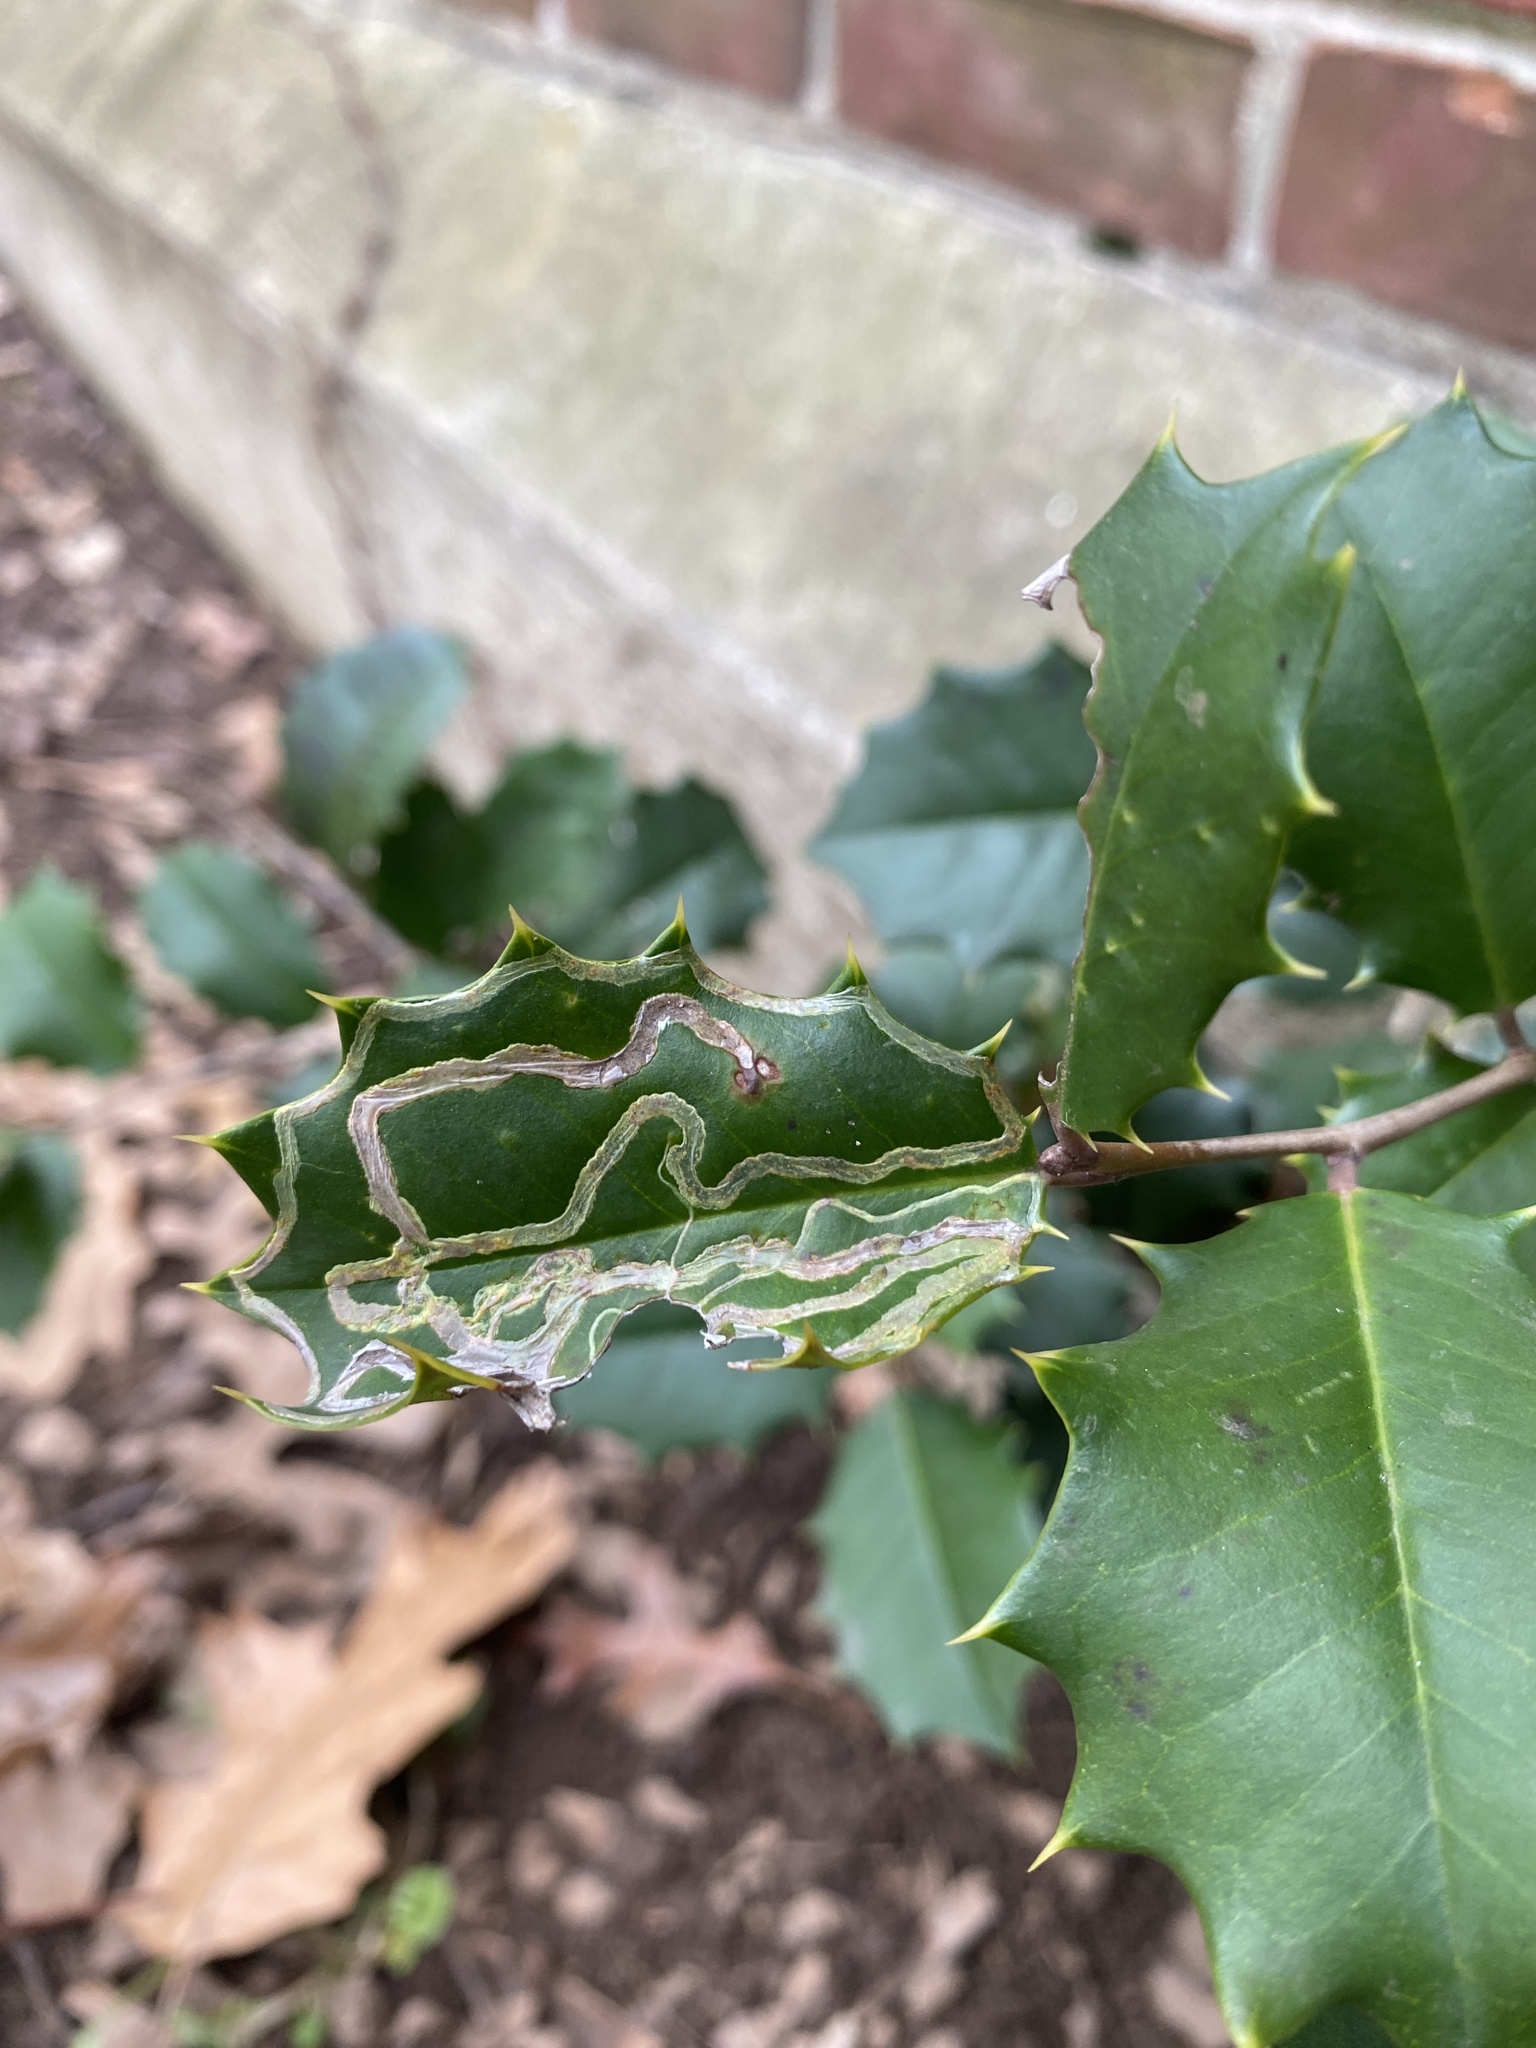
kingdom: Animalia
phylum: Arthropoda
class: Insecta
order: Diptera
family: Agromyzidae
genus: Phytomyza
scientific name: Phytomyza opacae
